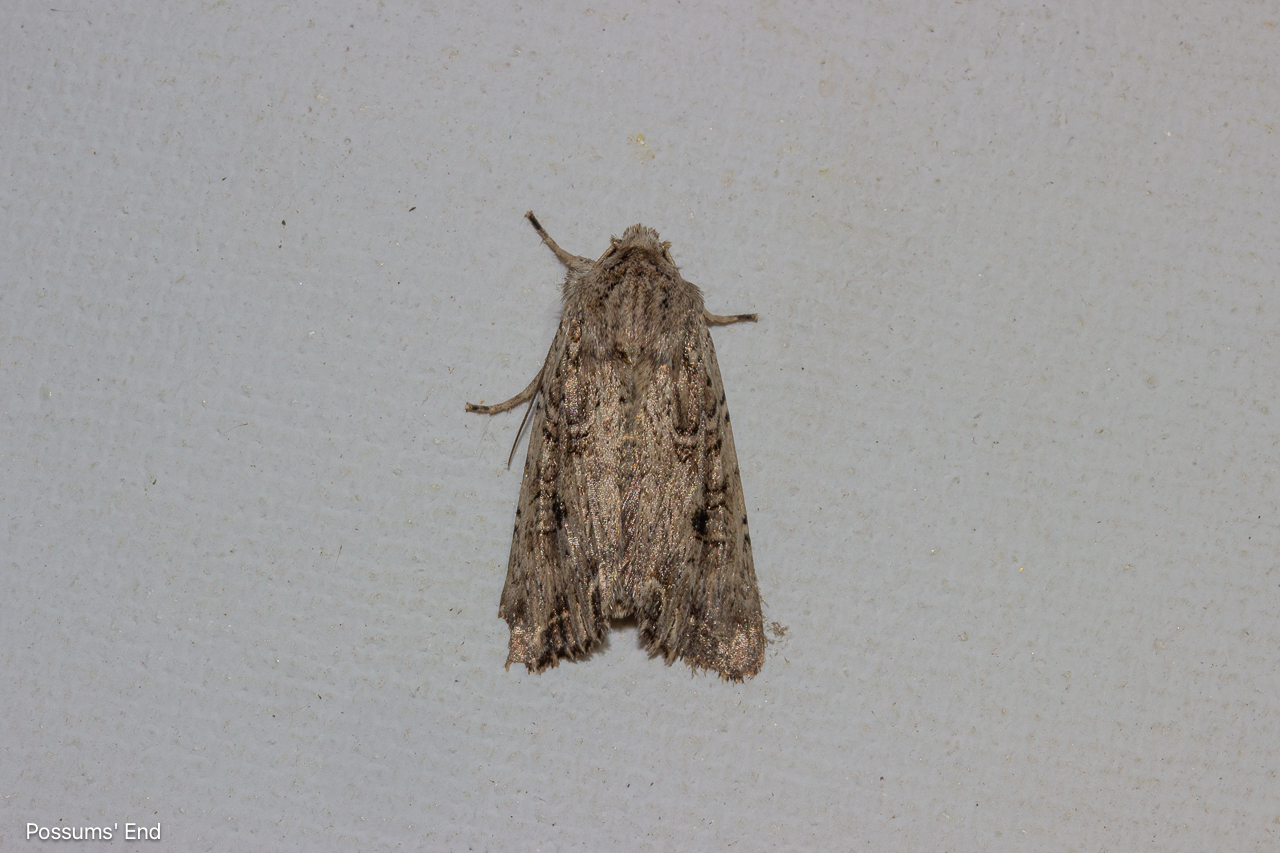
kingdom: Animalia
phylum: Arthropoda
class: Insecta
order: Lepidoptera
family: Noctuidae
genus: Ichneutica
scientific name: Ichneutica lignana
